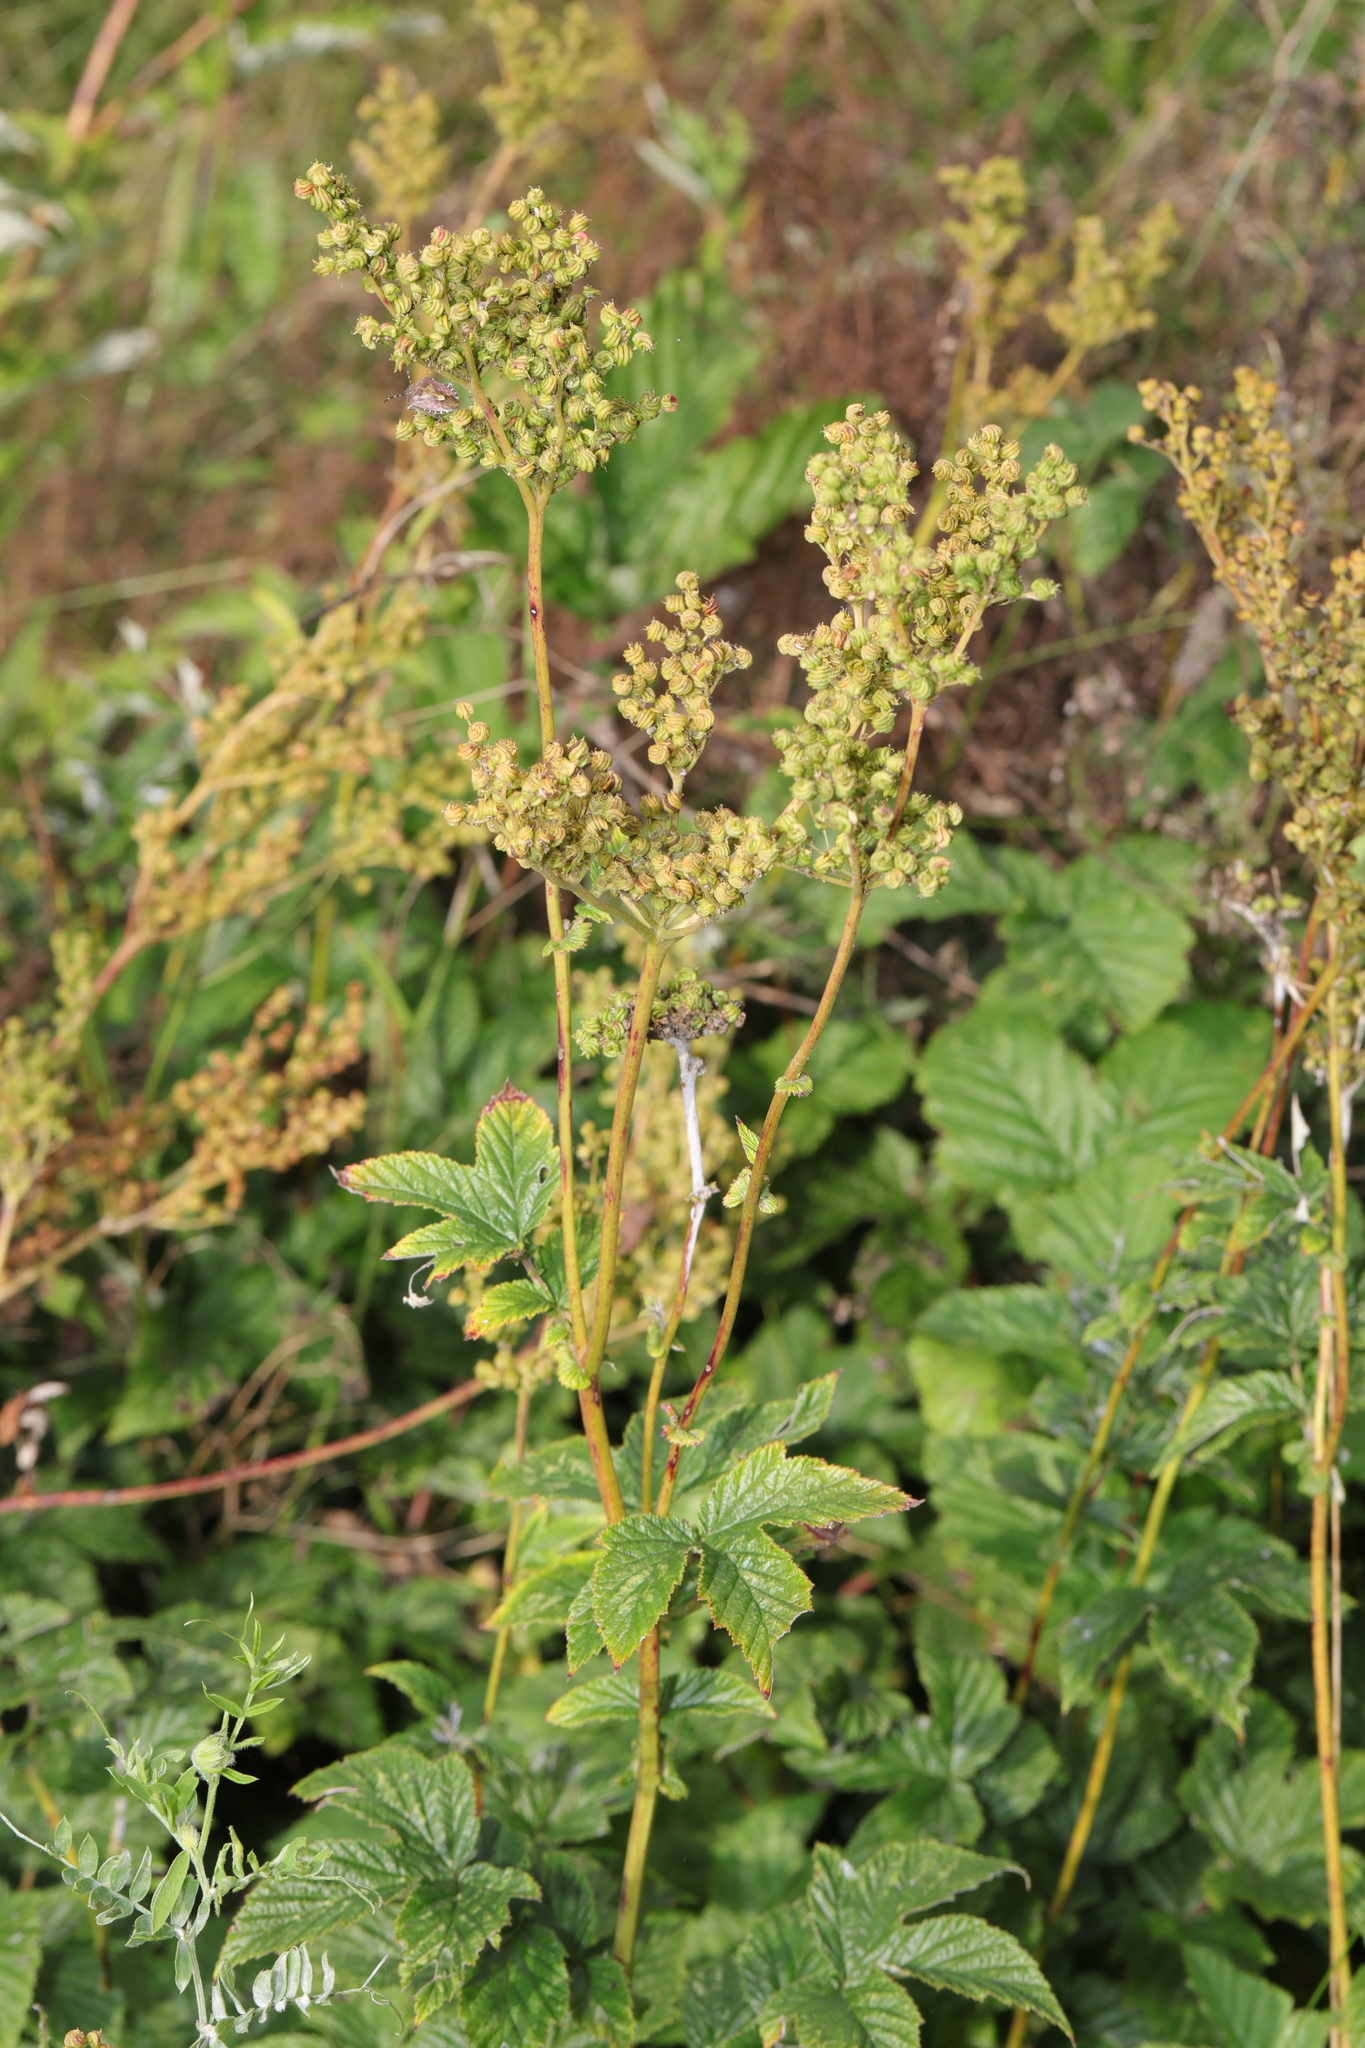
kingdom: Plantae
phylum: Tracheophyta
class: Magnoliopsida
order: Rosales
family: Rosaceae
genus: Filipendula
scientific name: Filipendula ulmaria
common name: Meadowsweet
